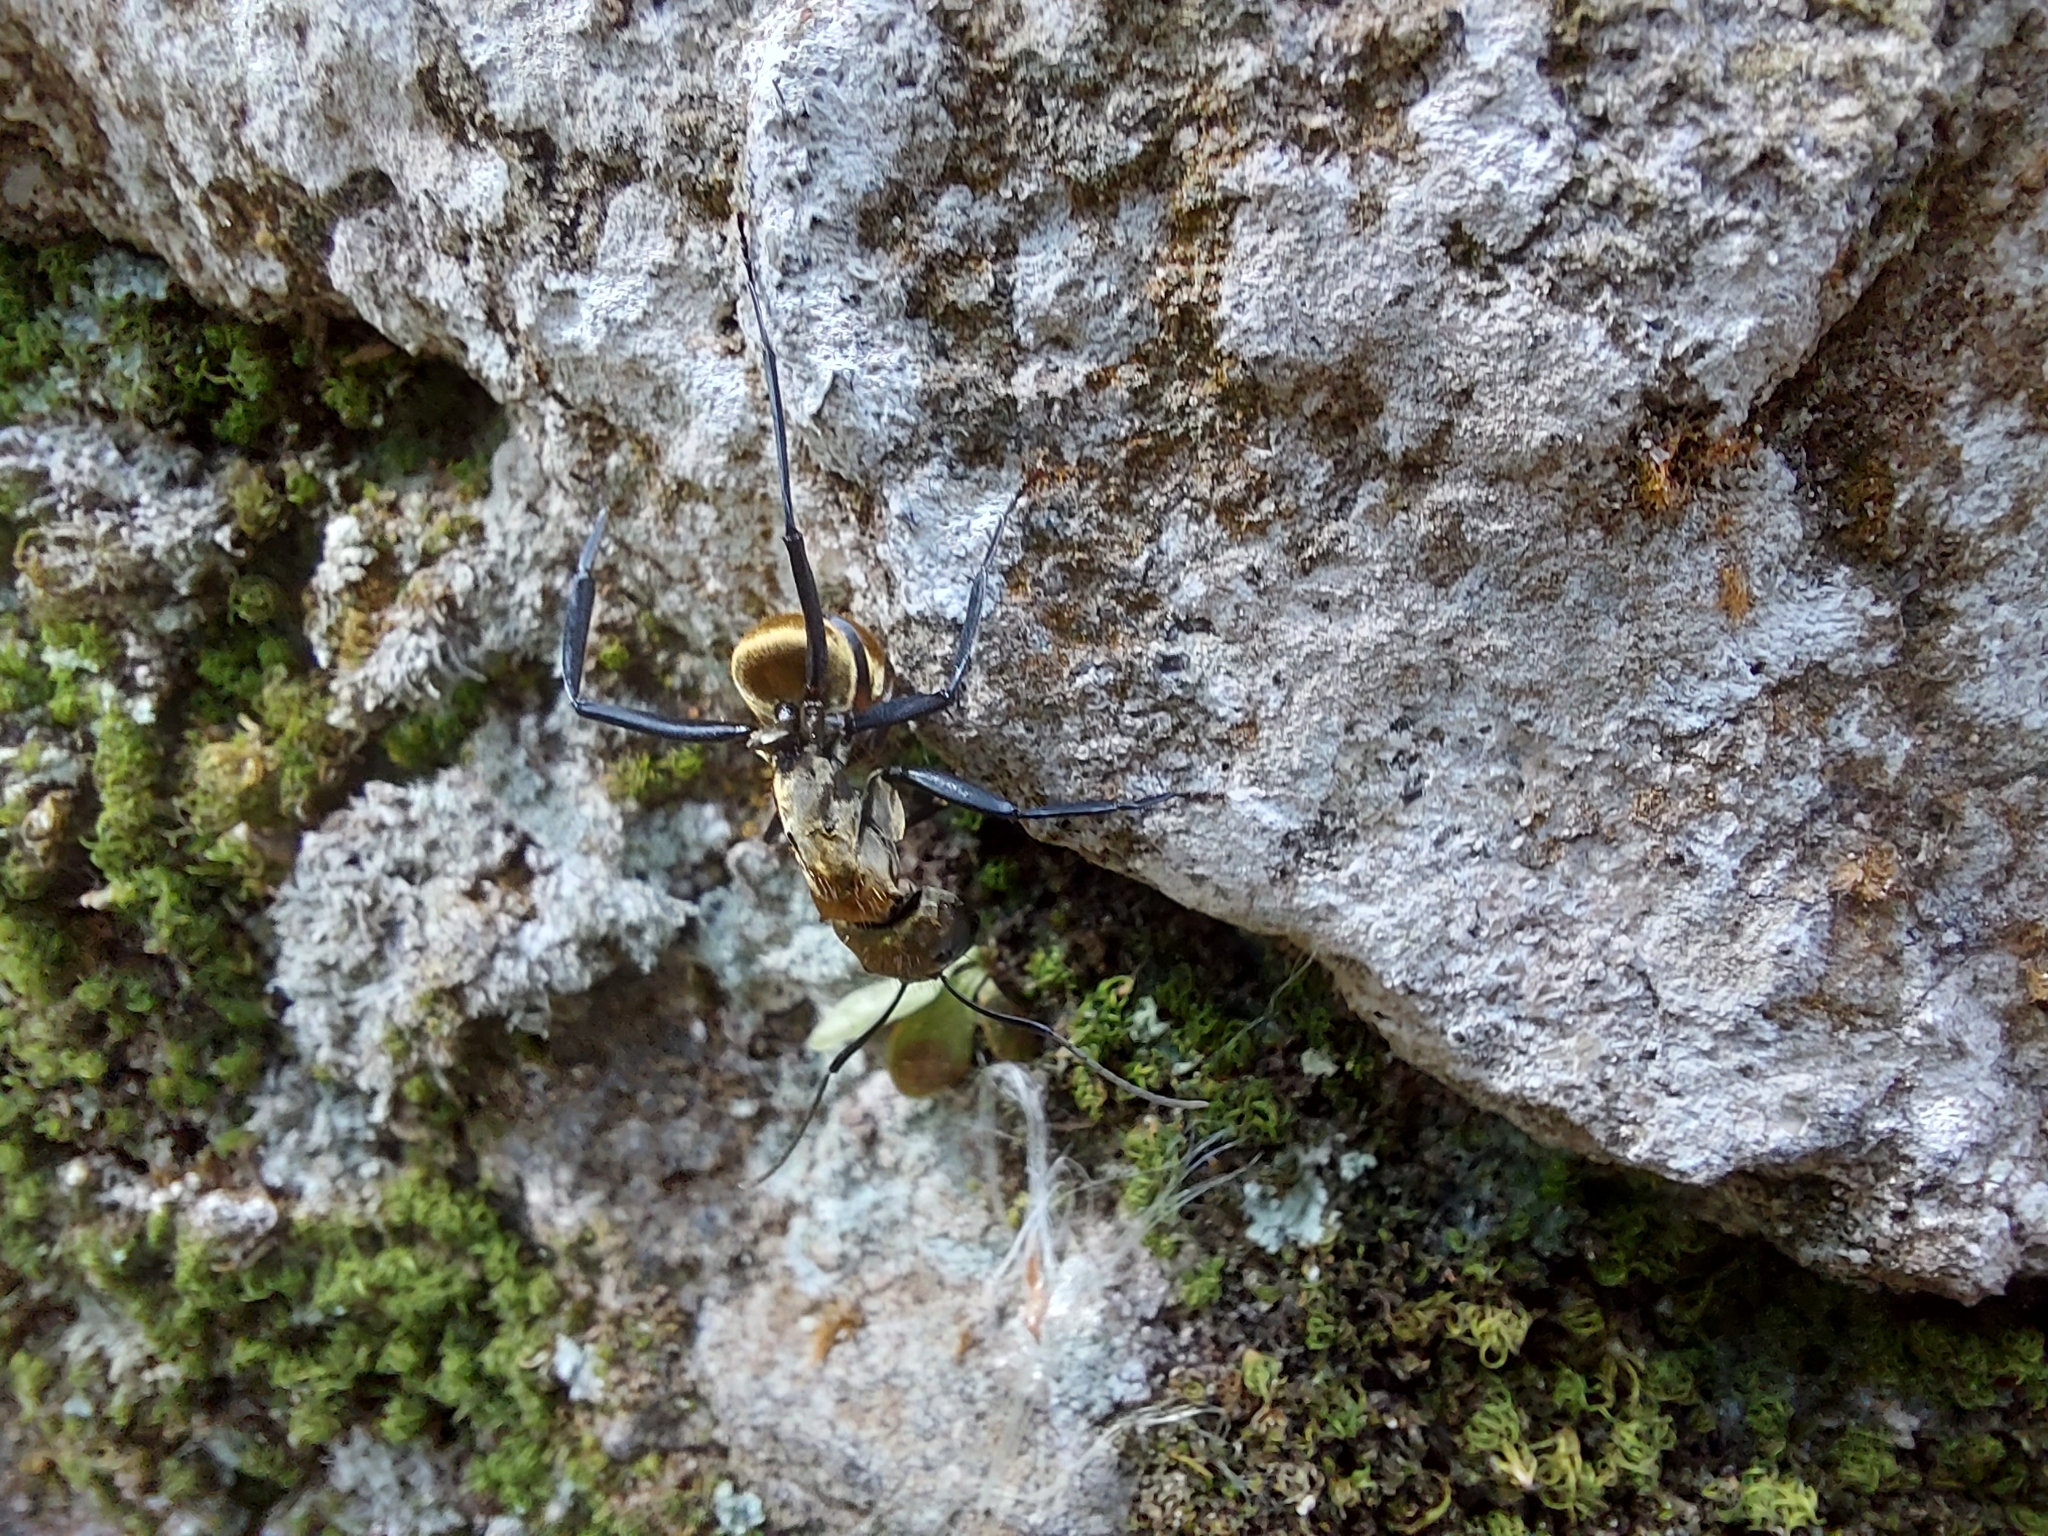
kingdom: Animalia
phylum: Arthropoda
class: Insecta
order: Hymenoptera
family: Formicidae
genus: Camponotus
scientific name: Camponotus sericeiventris
